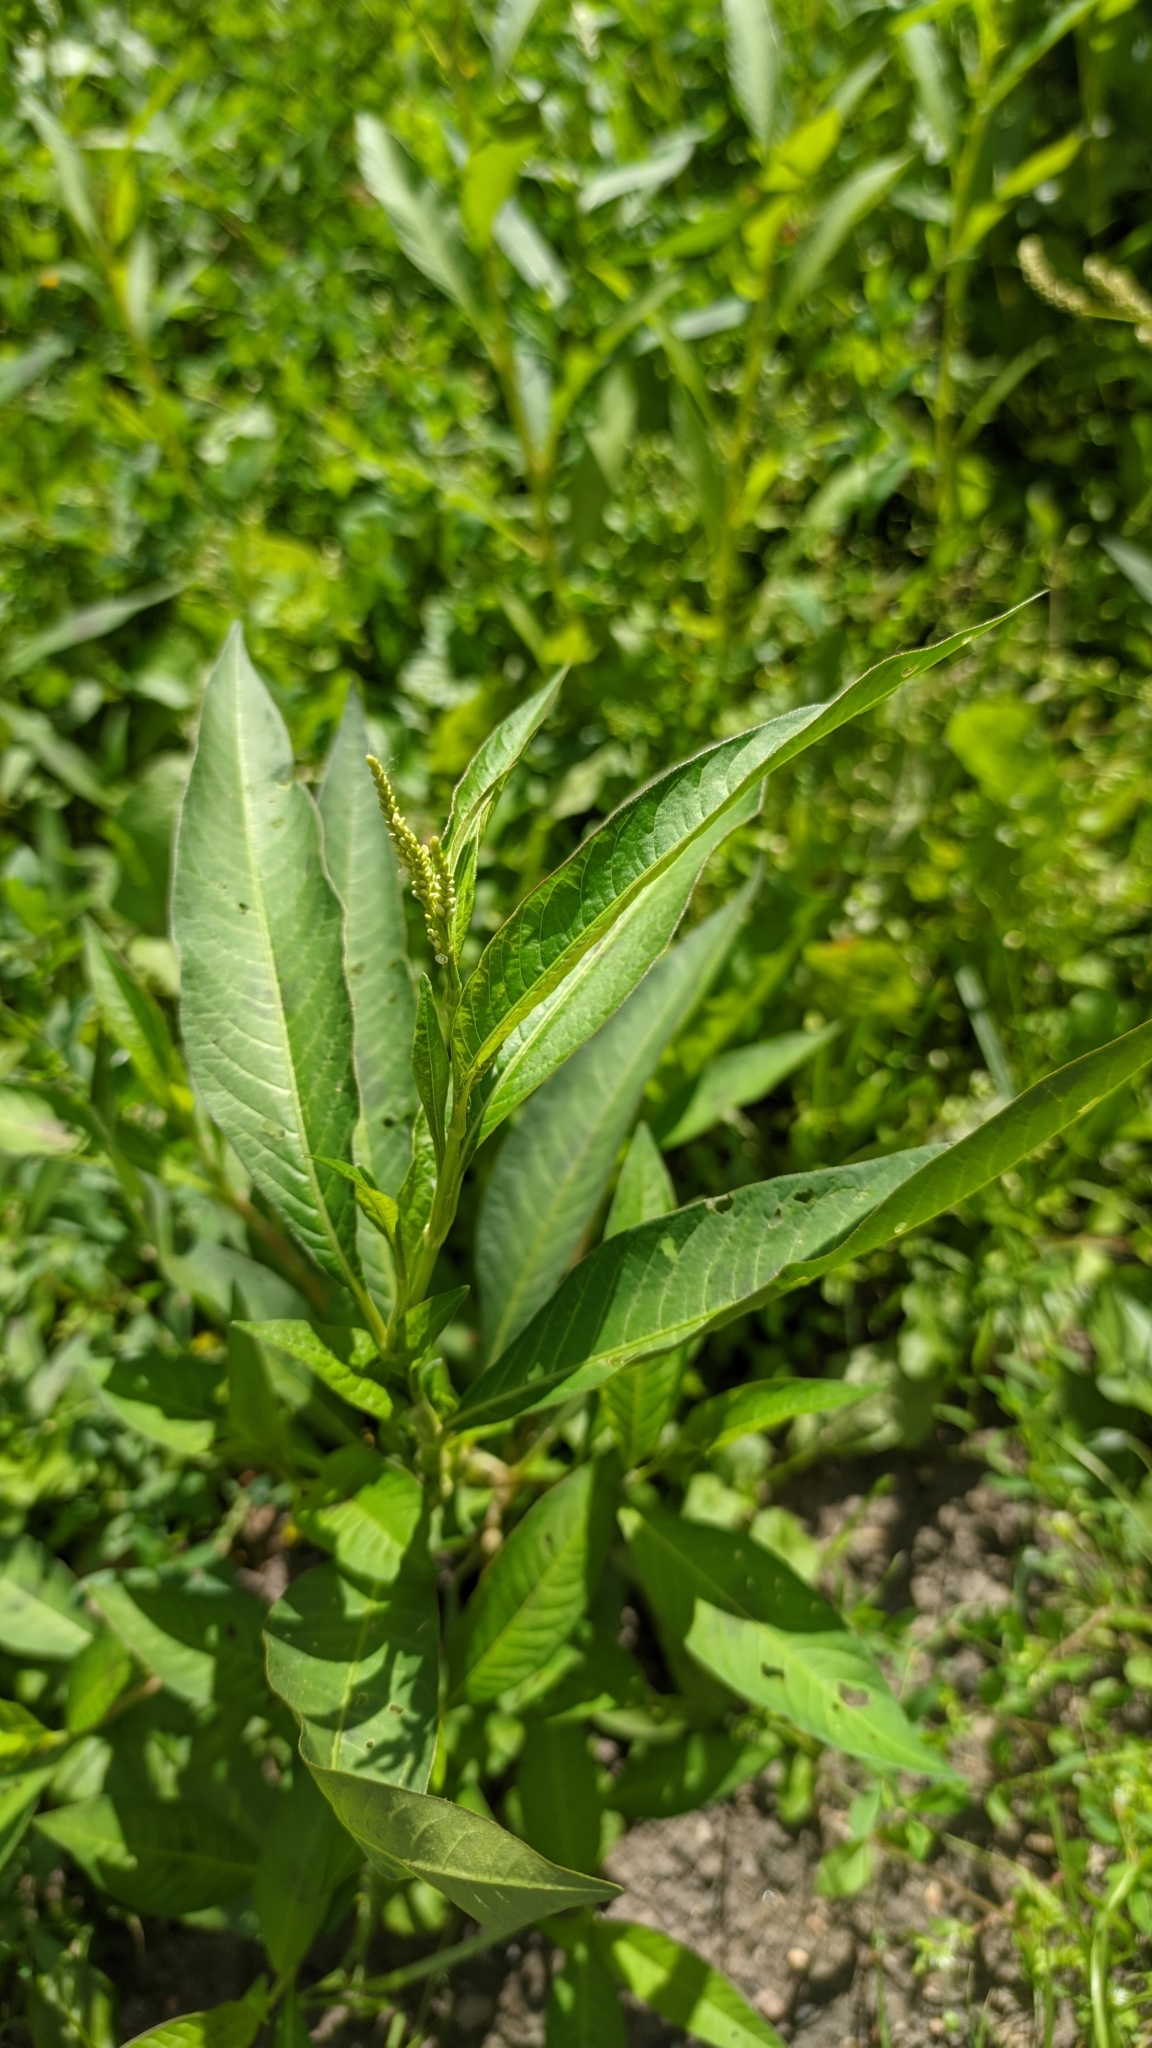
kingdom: Plantae
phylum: Tracheophyta
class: Magnoliopsida
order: Caryophyllales
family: Polygonaceae
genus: Persicaria
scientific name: Persicaria lapathifolia
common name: Curlytop knotweed
